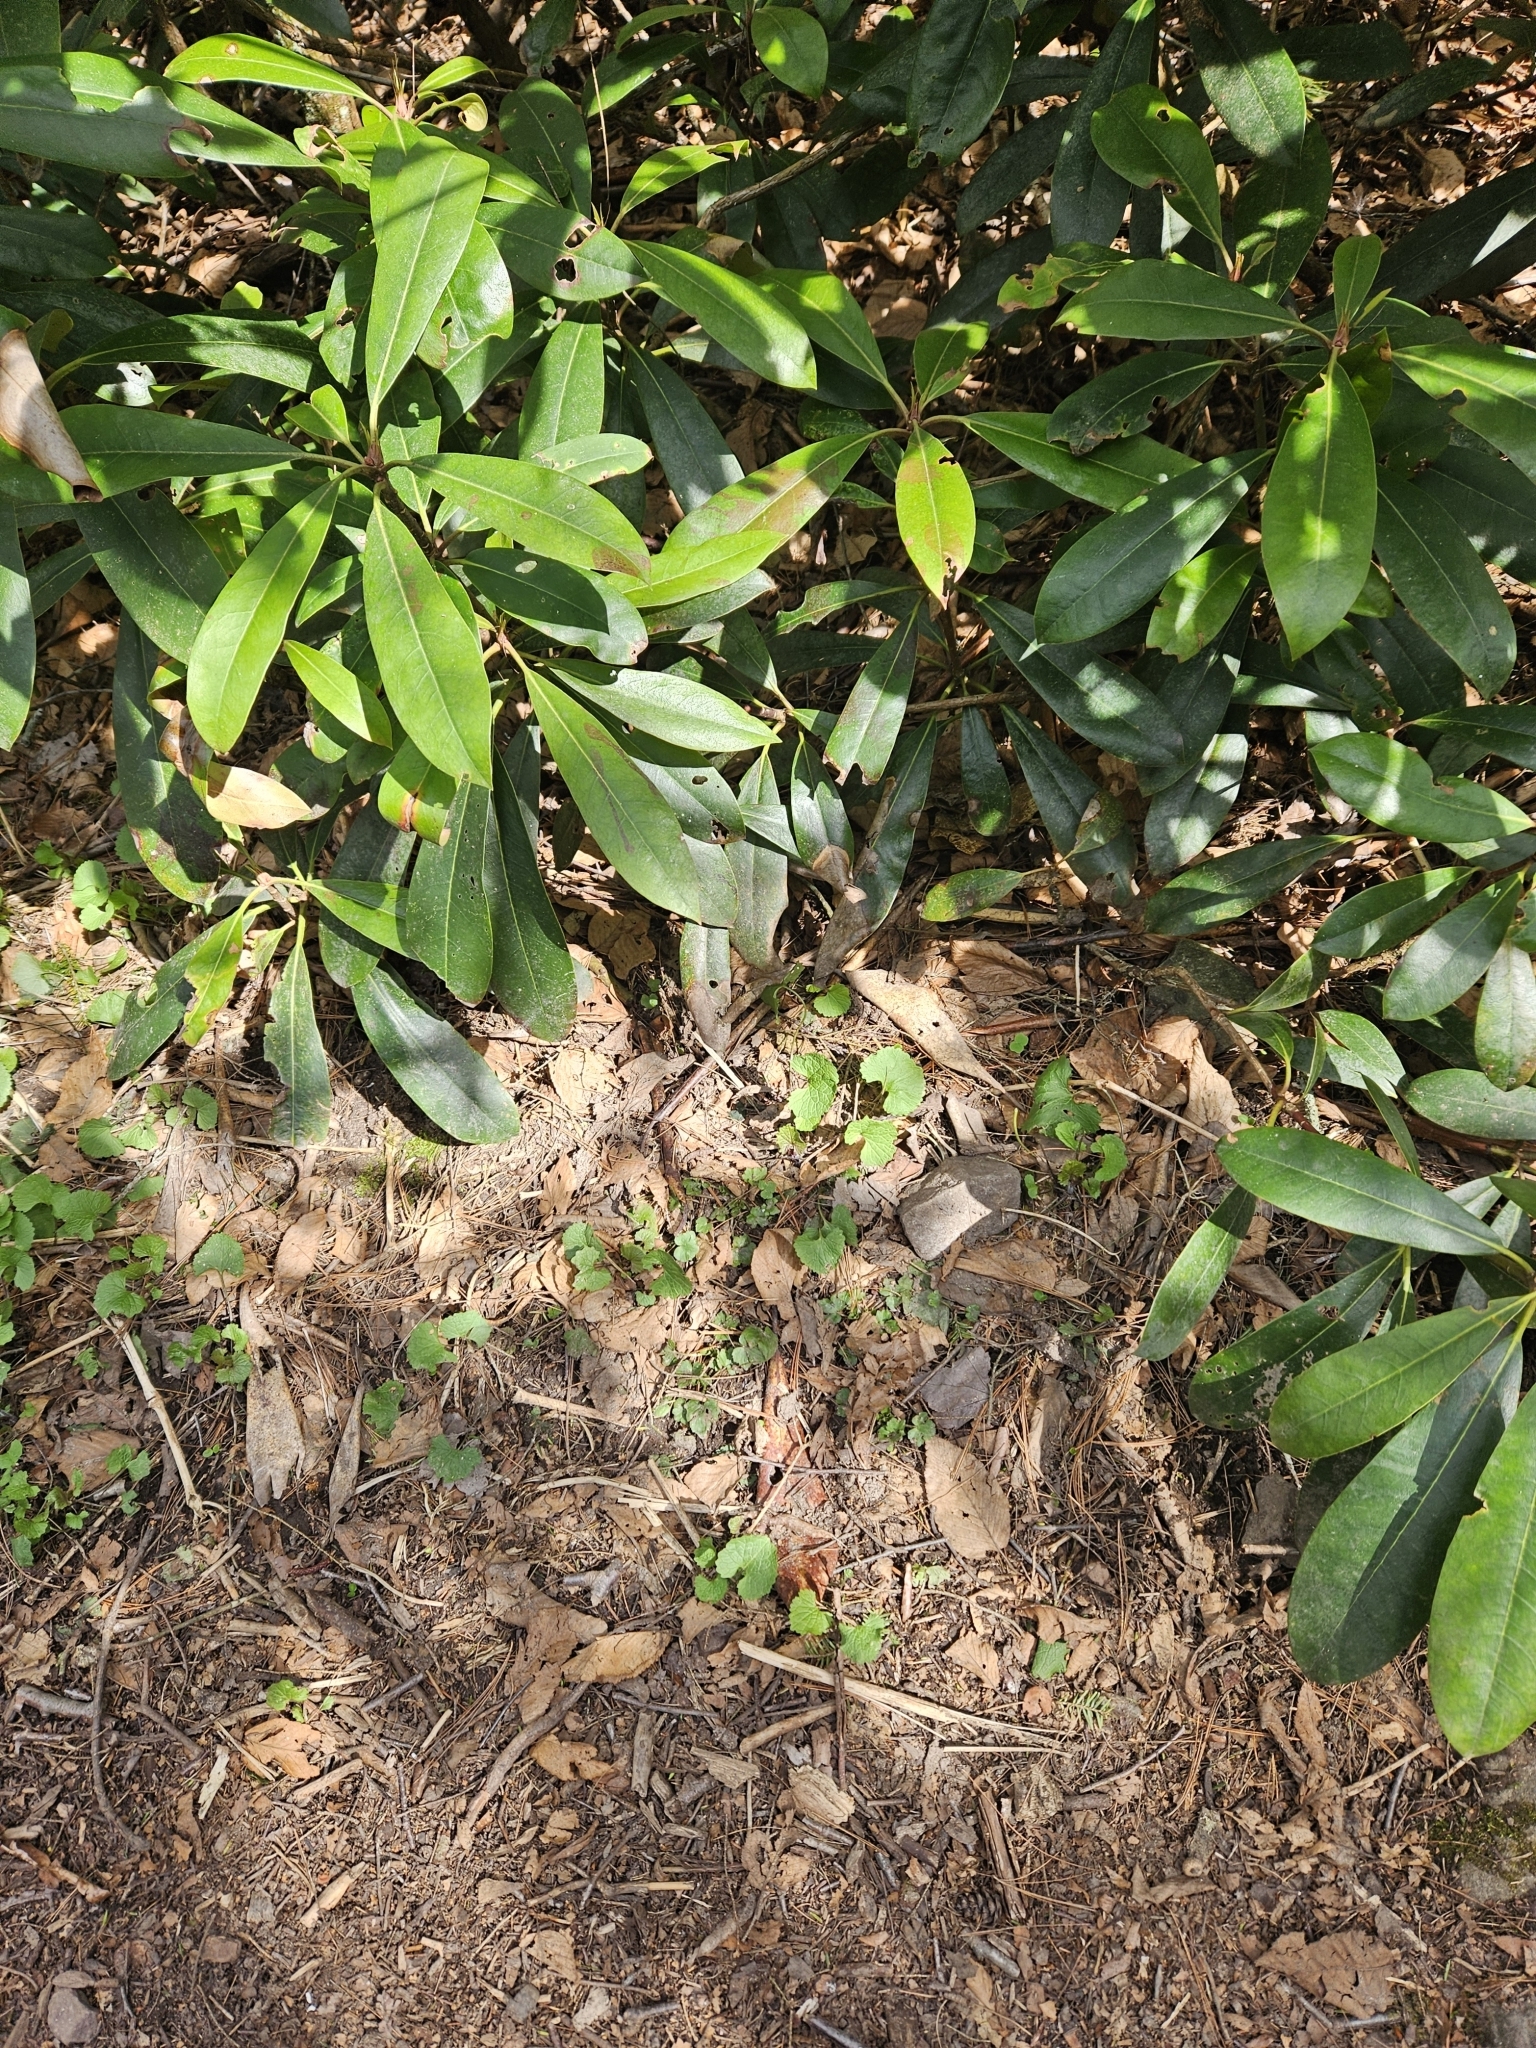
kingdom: Plantae
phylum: Tracheophyta
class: Magnoliopsida
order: Brassicales
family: Brassicaceae
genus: Alliaria
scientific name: Alliaria petiolata
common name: Garlic mustard
